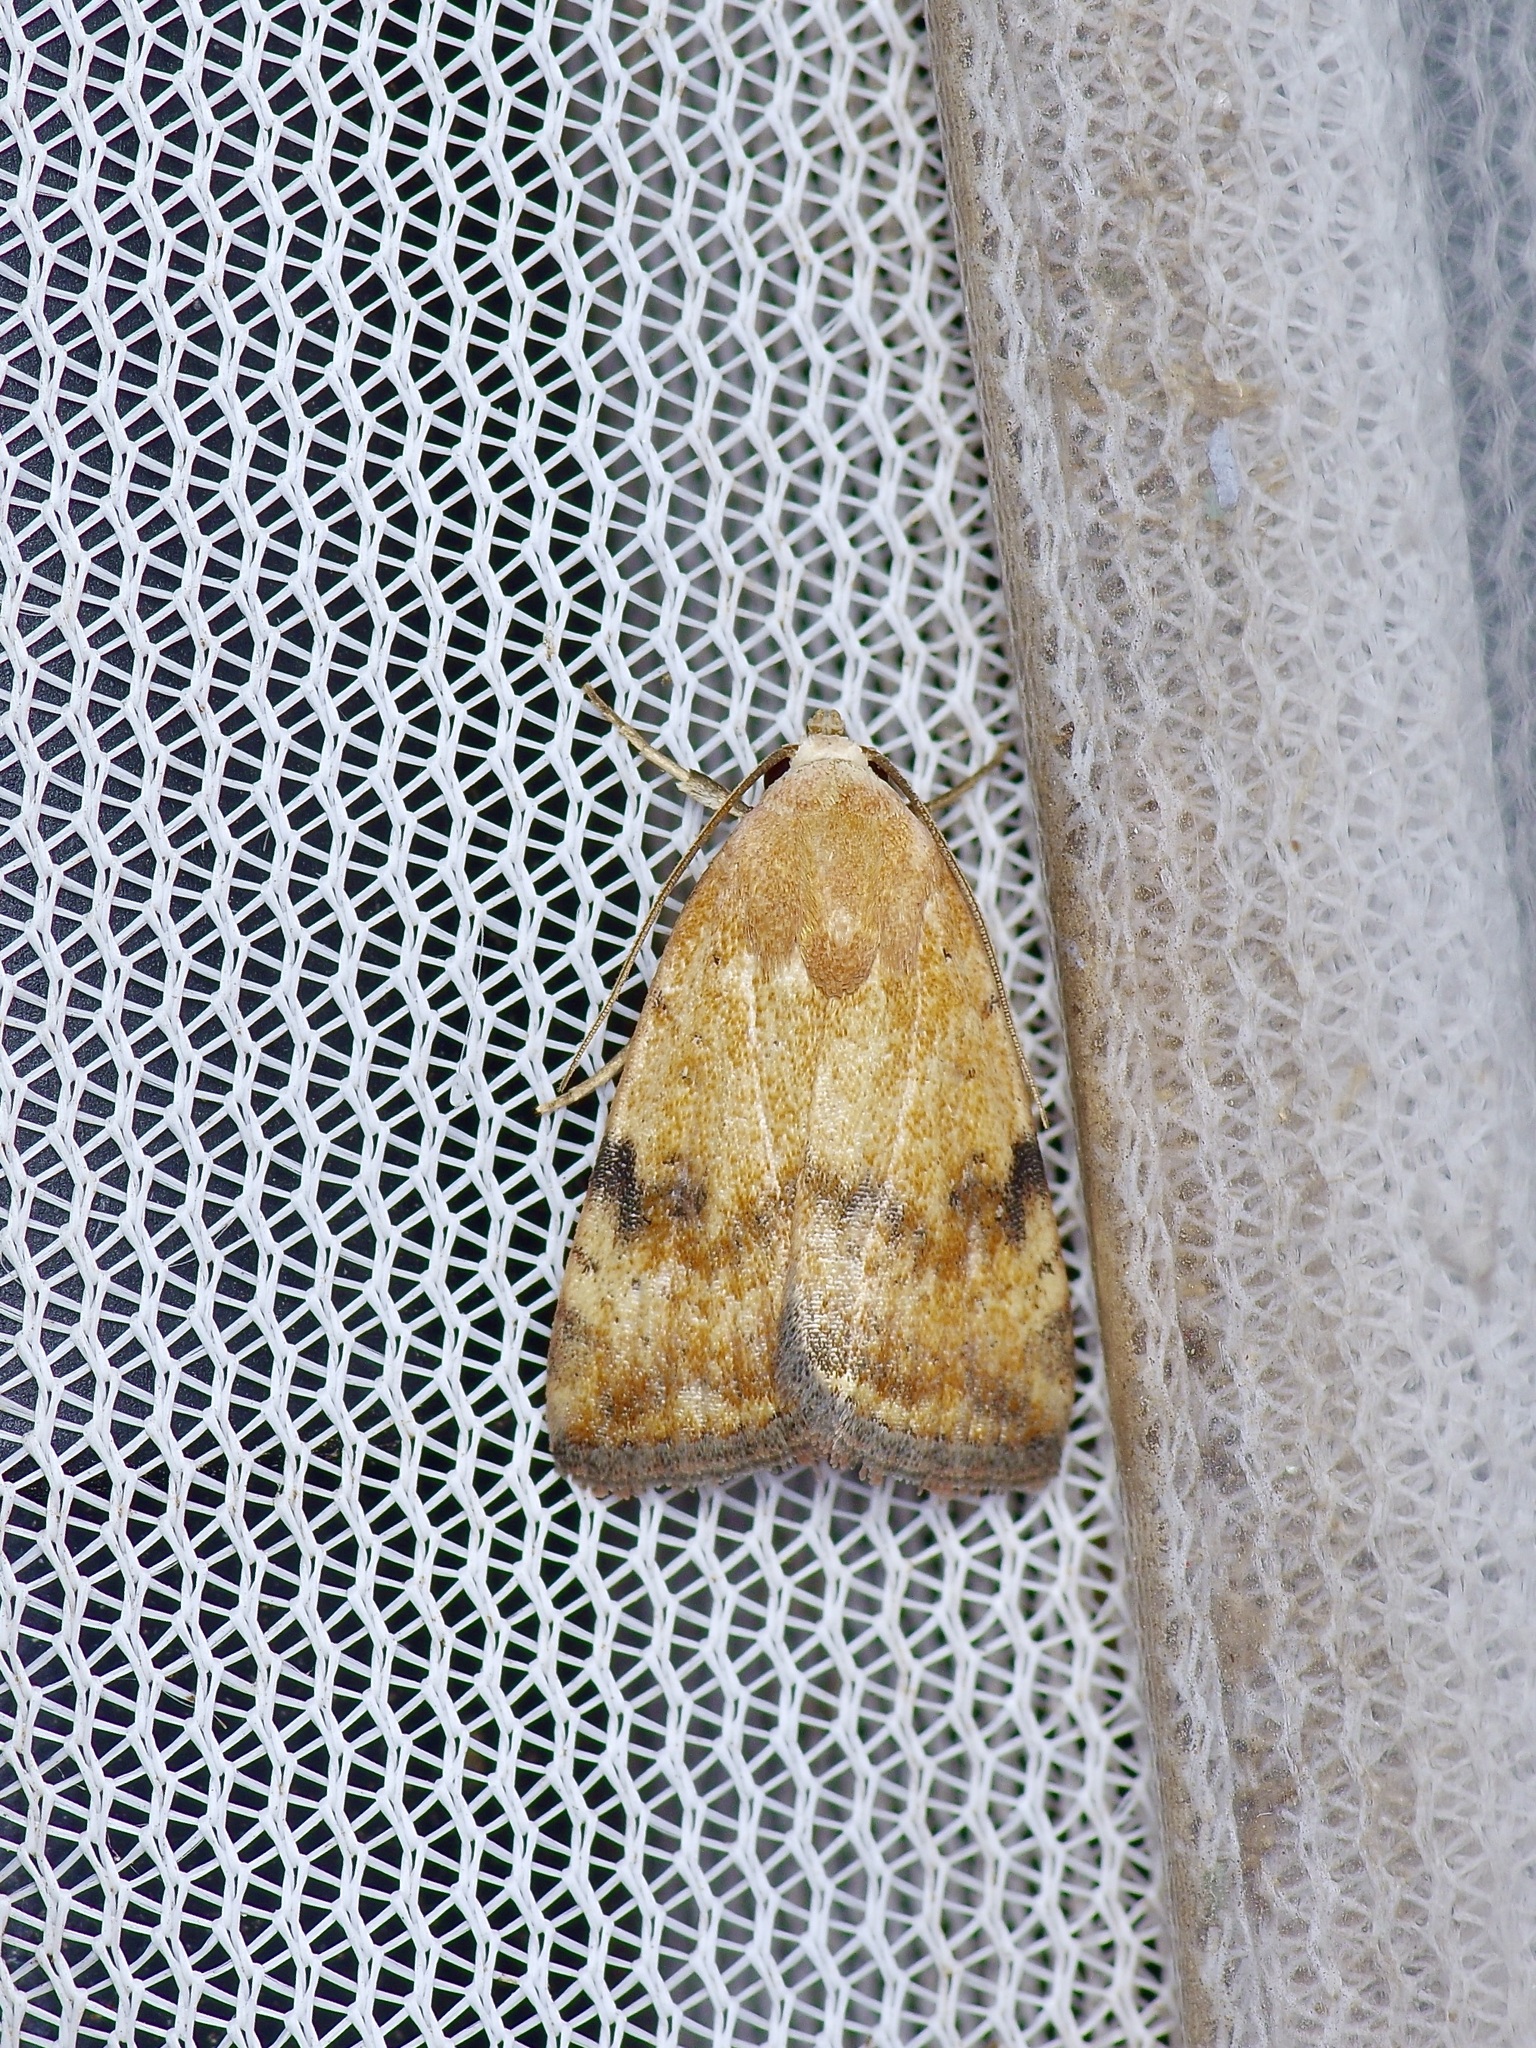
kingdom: Animalia
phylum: Arthropoda
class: Insecta
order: Lepidoptera
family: Noctuidae
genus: Micrathetis
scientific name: Micrathetis triplex
